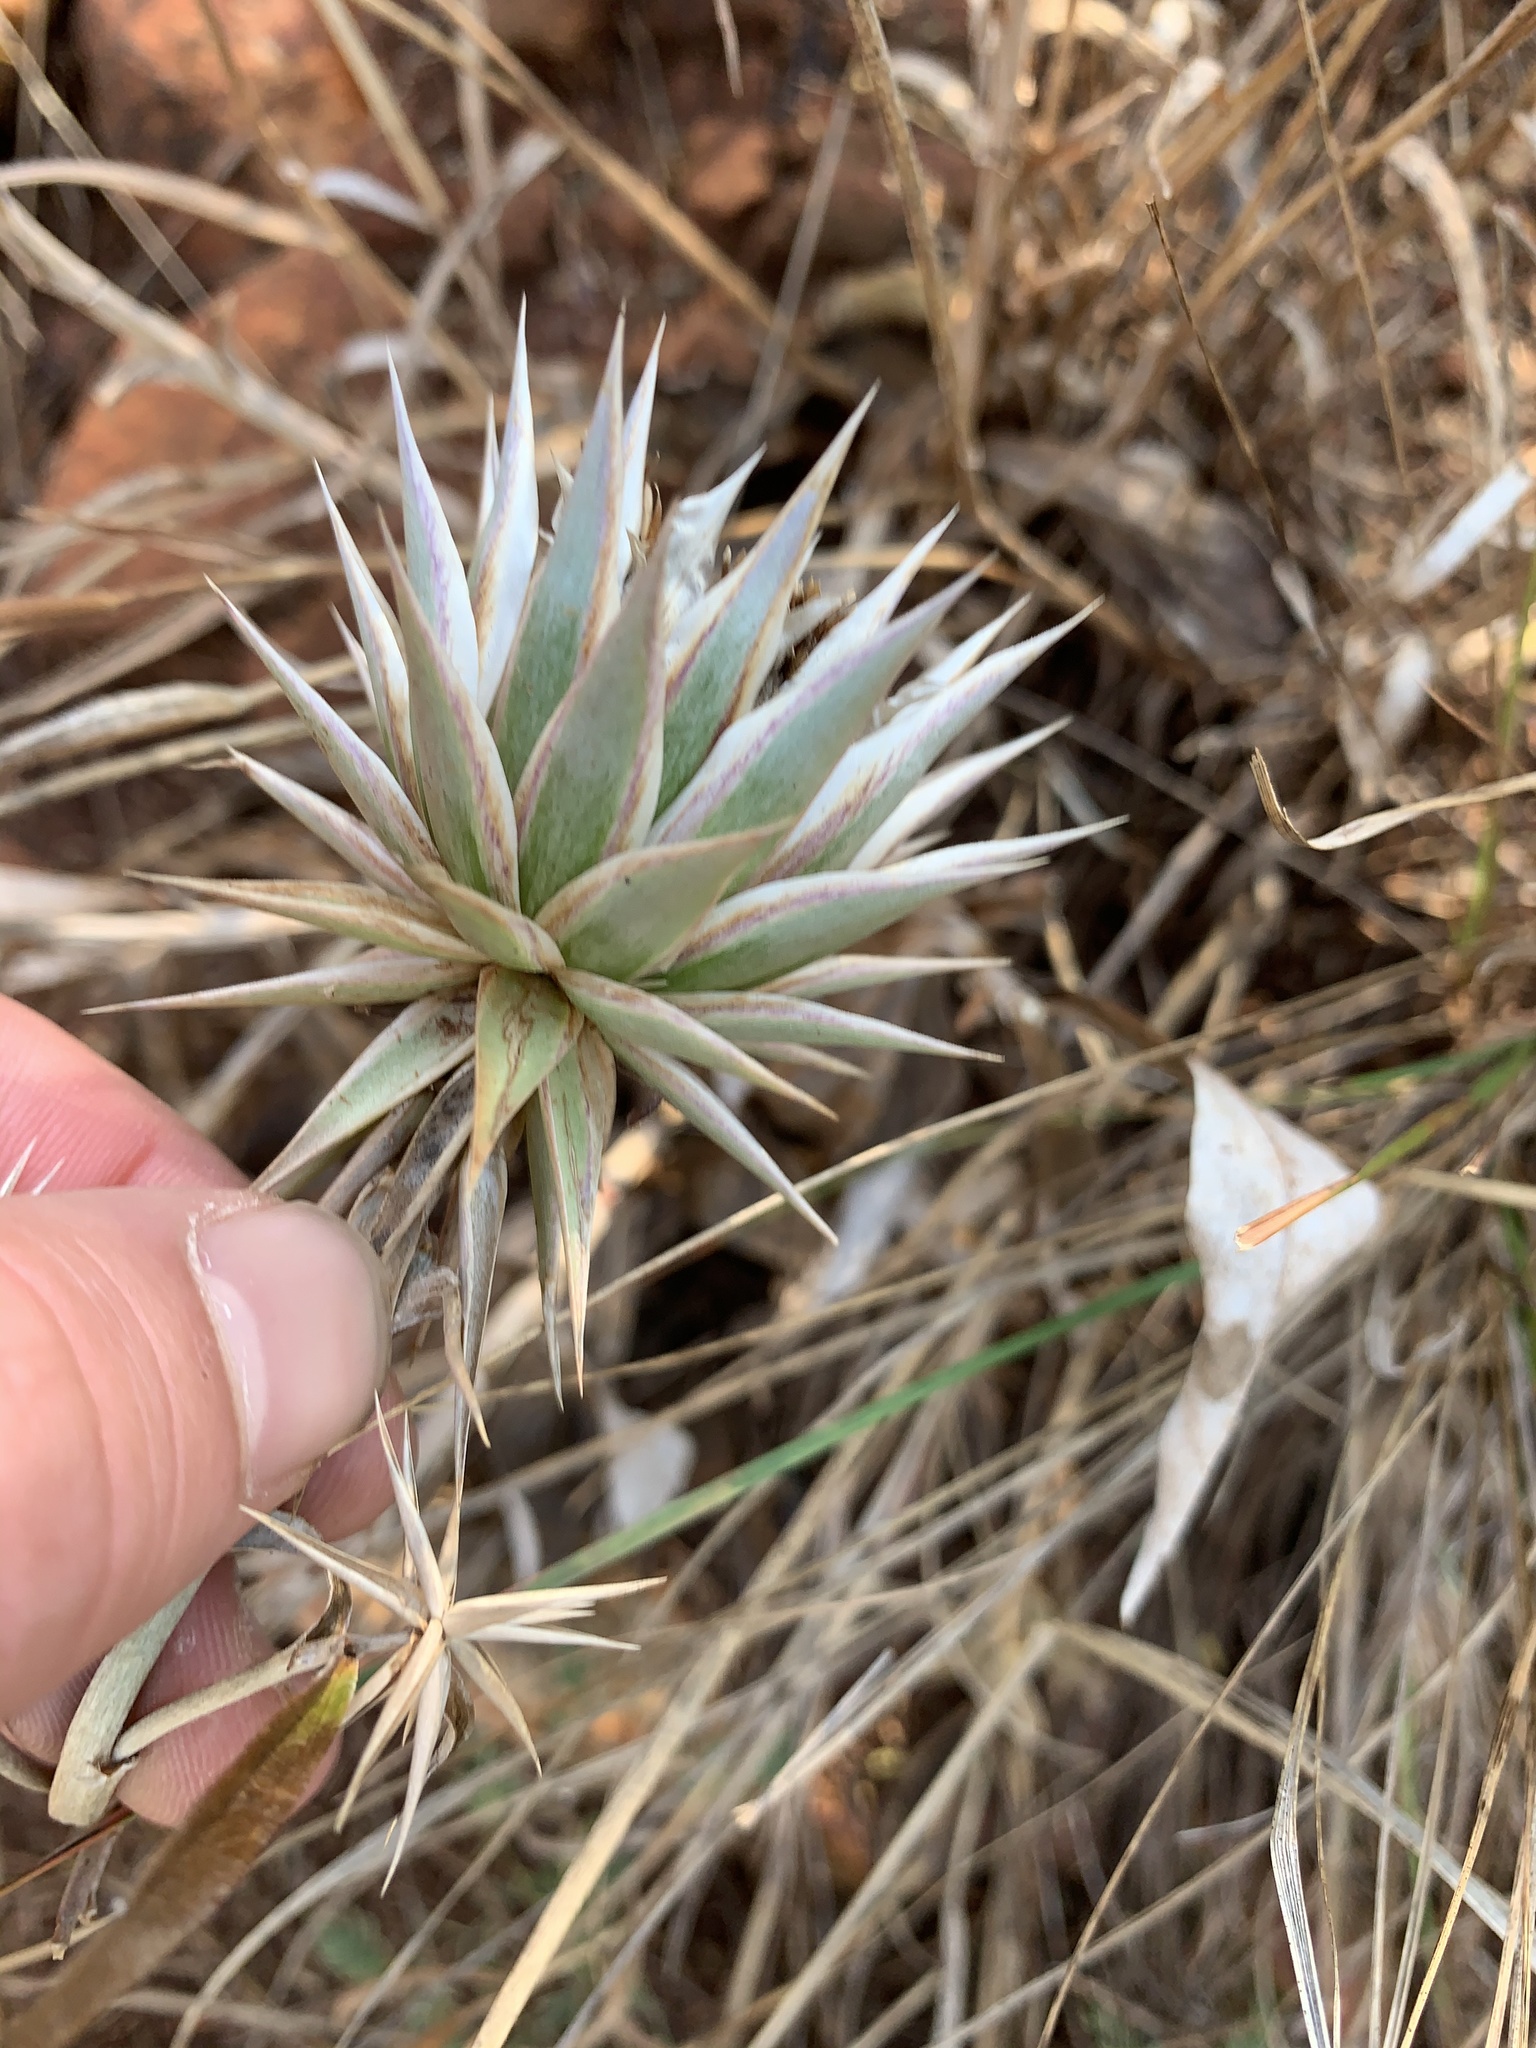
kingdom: Plantae
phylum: Tracheophyta
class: Magnoliopsida
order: Asterales
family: Asteraceae
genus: Macledium
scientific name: Macledium zeyheri
